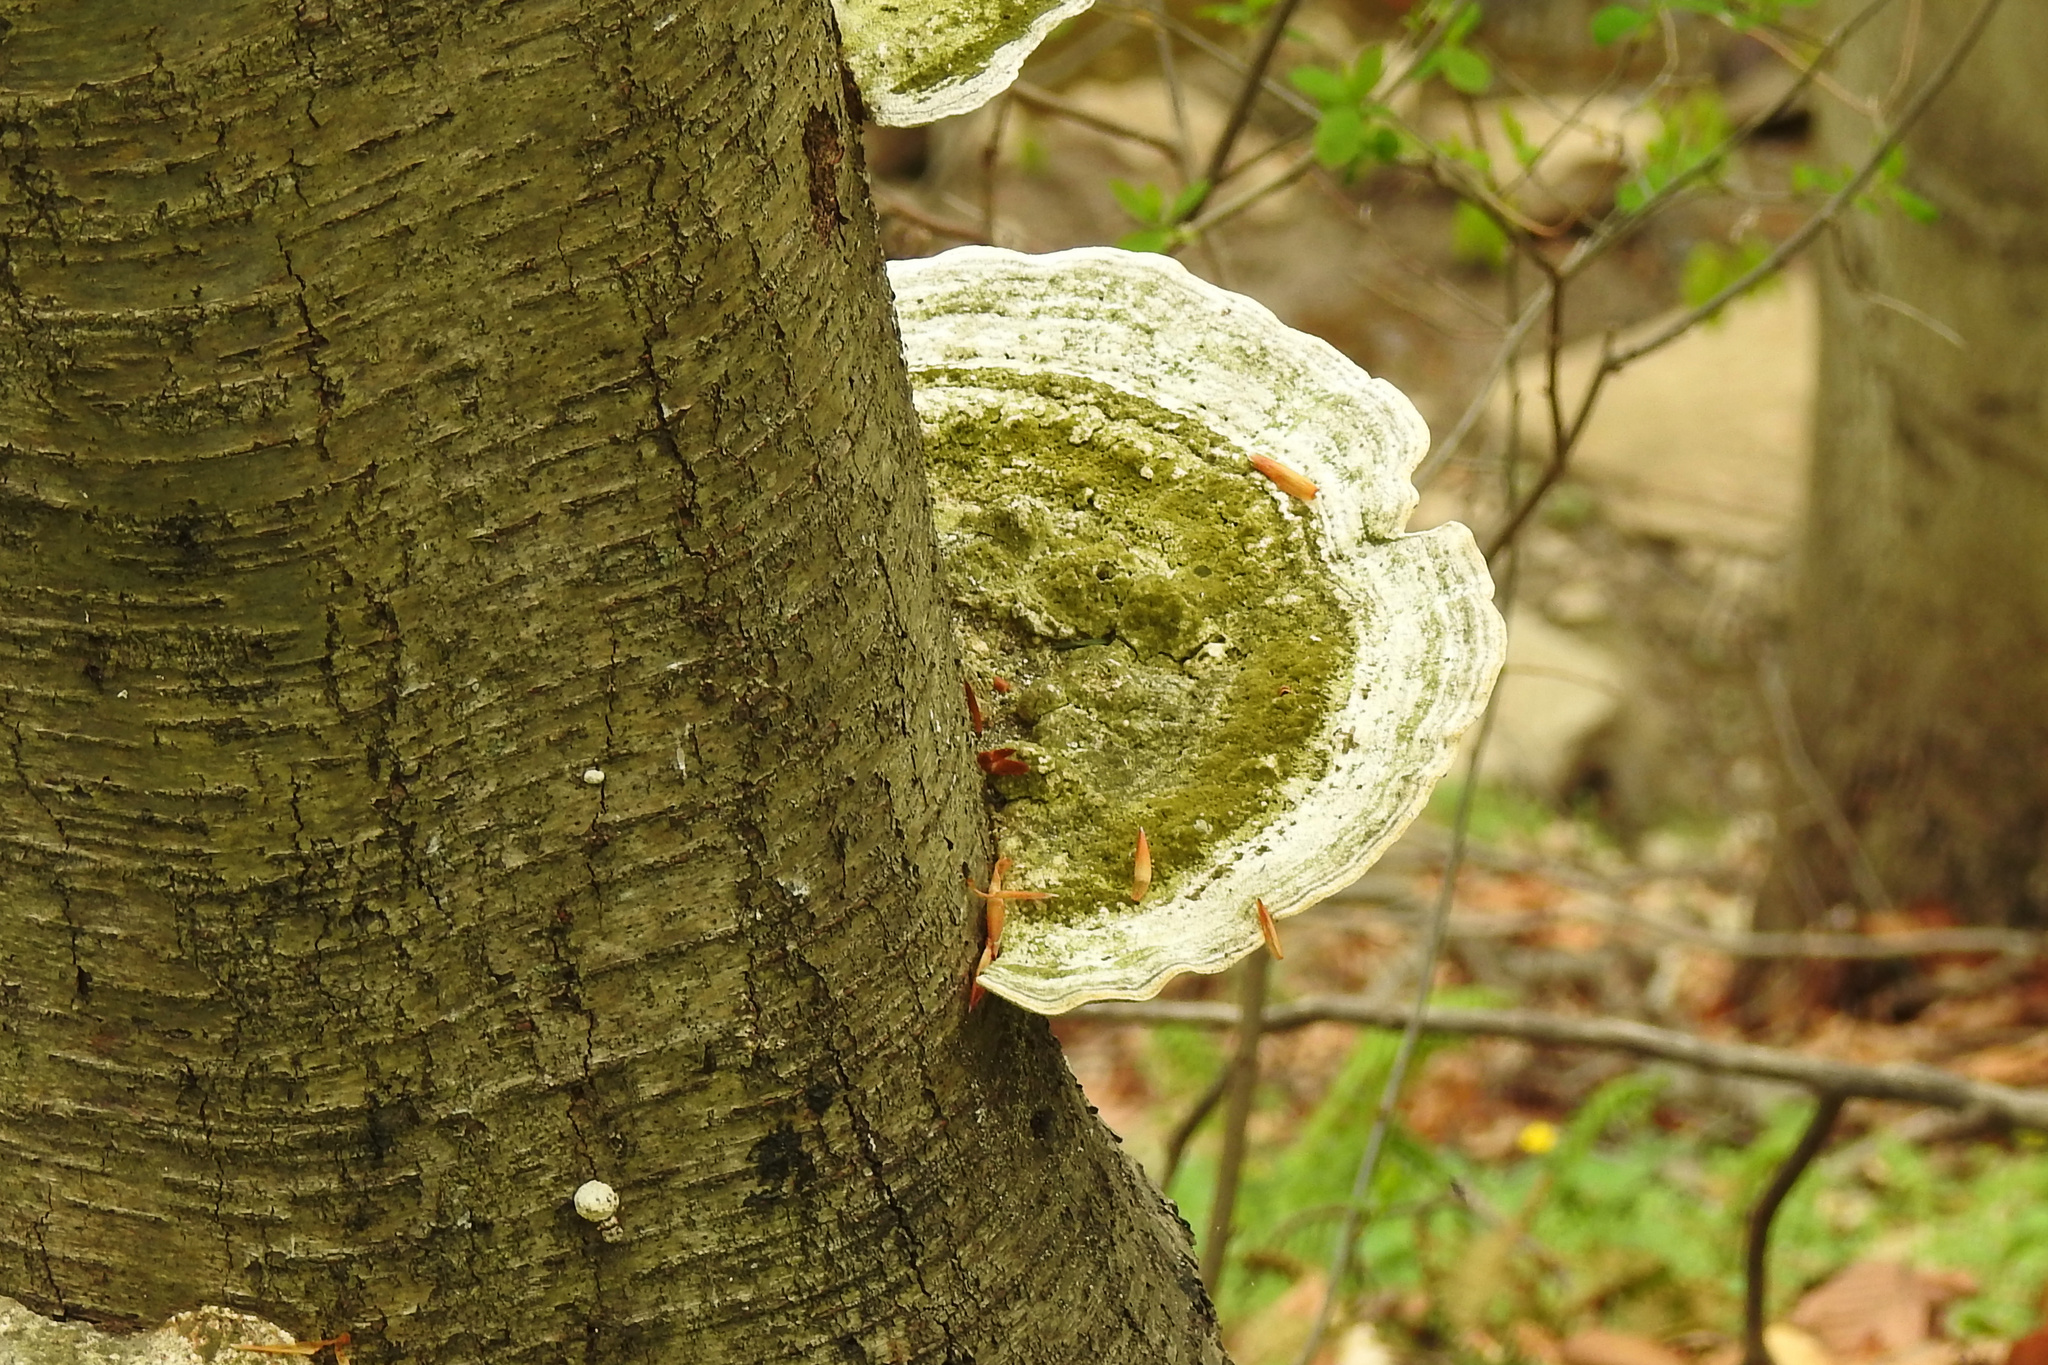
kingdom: Fungi
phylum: Basidiomycota
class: Agaricomycetes
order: Polyporales
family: Polyporaceae
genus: Trametes
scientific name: Trametes gibbosa
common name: Lumpy bracket
